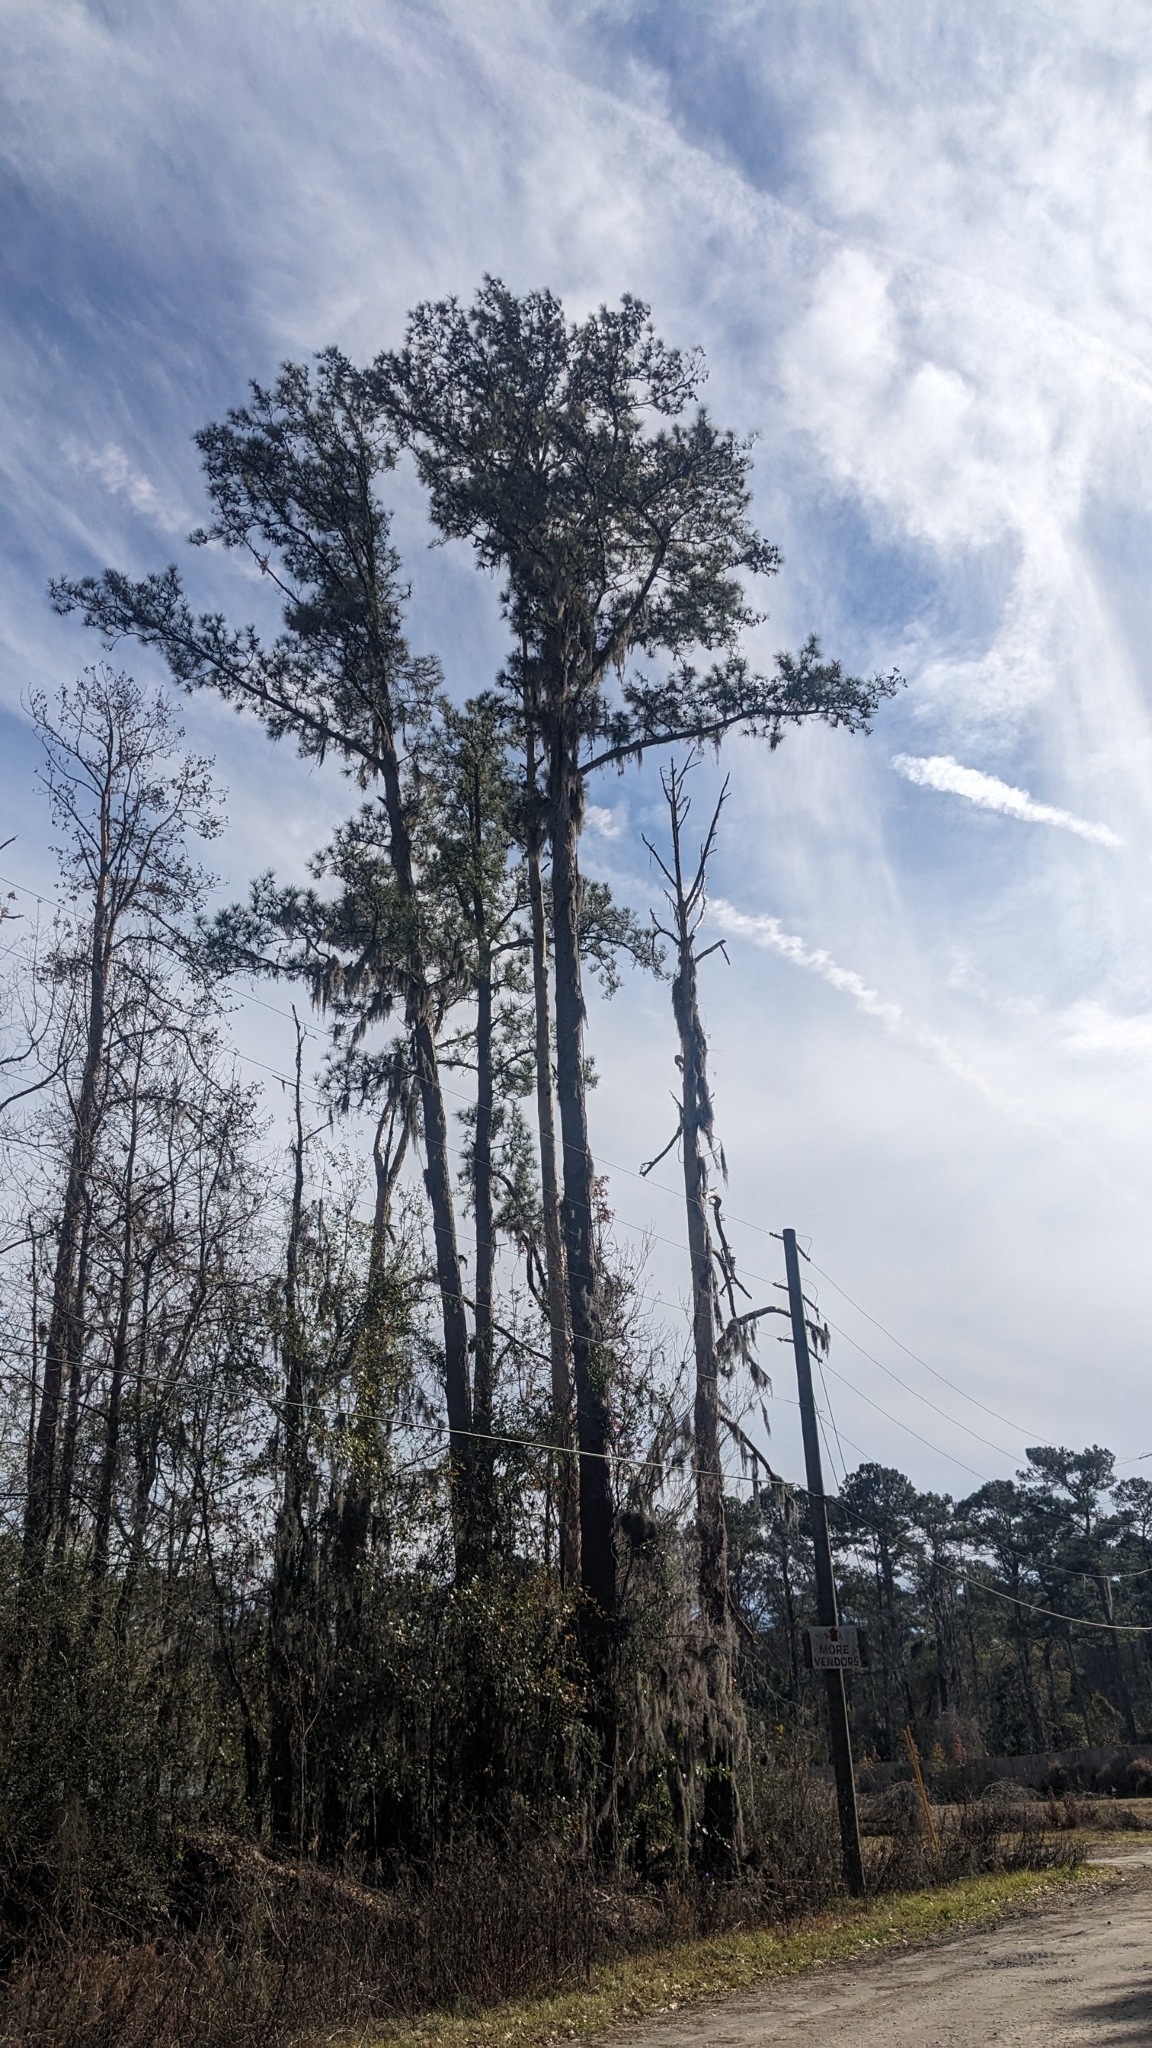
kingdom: Plantae
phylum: Tracheophyta
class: Liliopsida
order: Poales
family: Bromeliaceae
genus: Tillandsia
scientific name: Tillandsia usneoides
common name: Spanish moss
